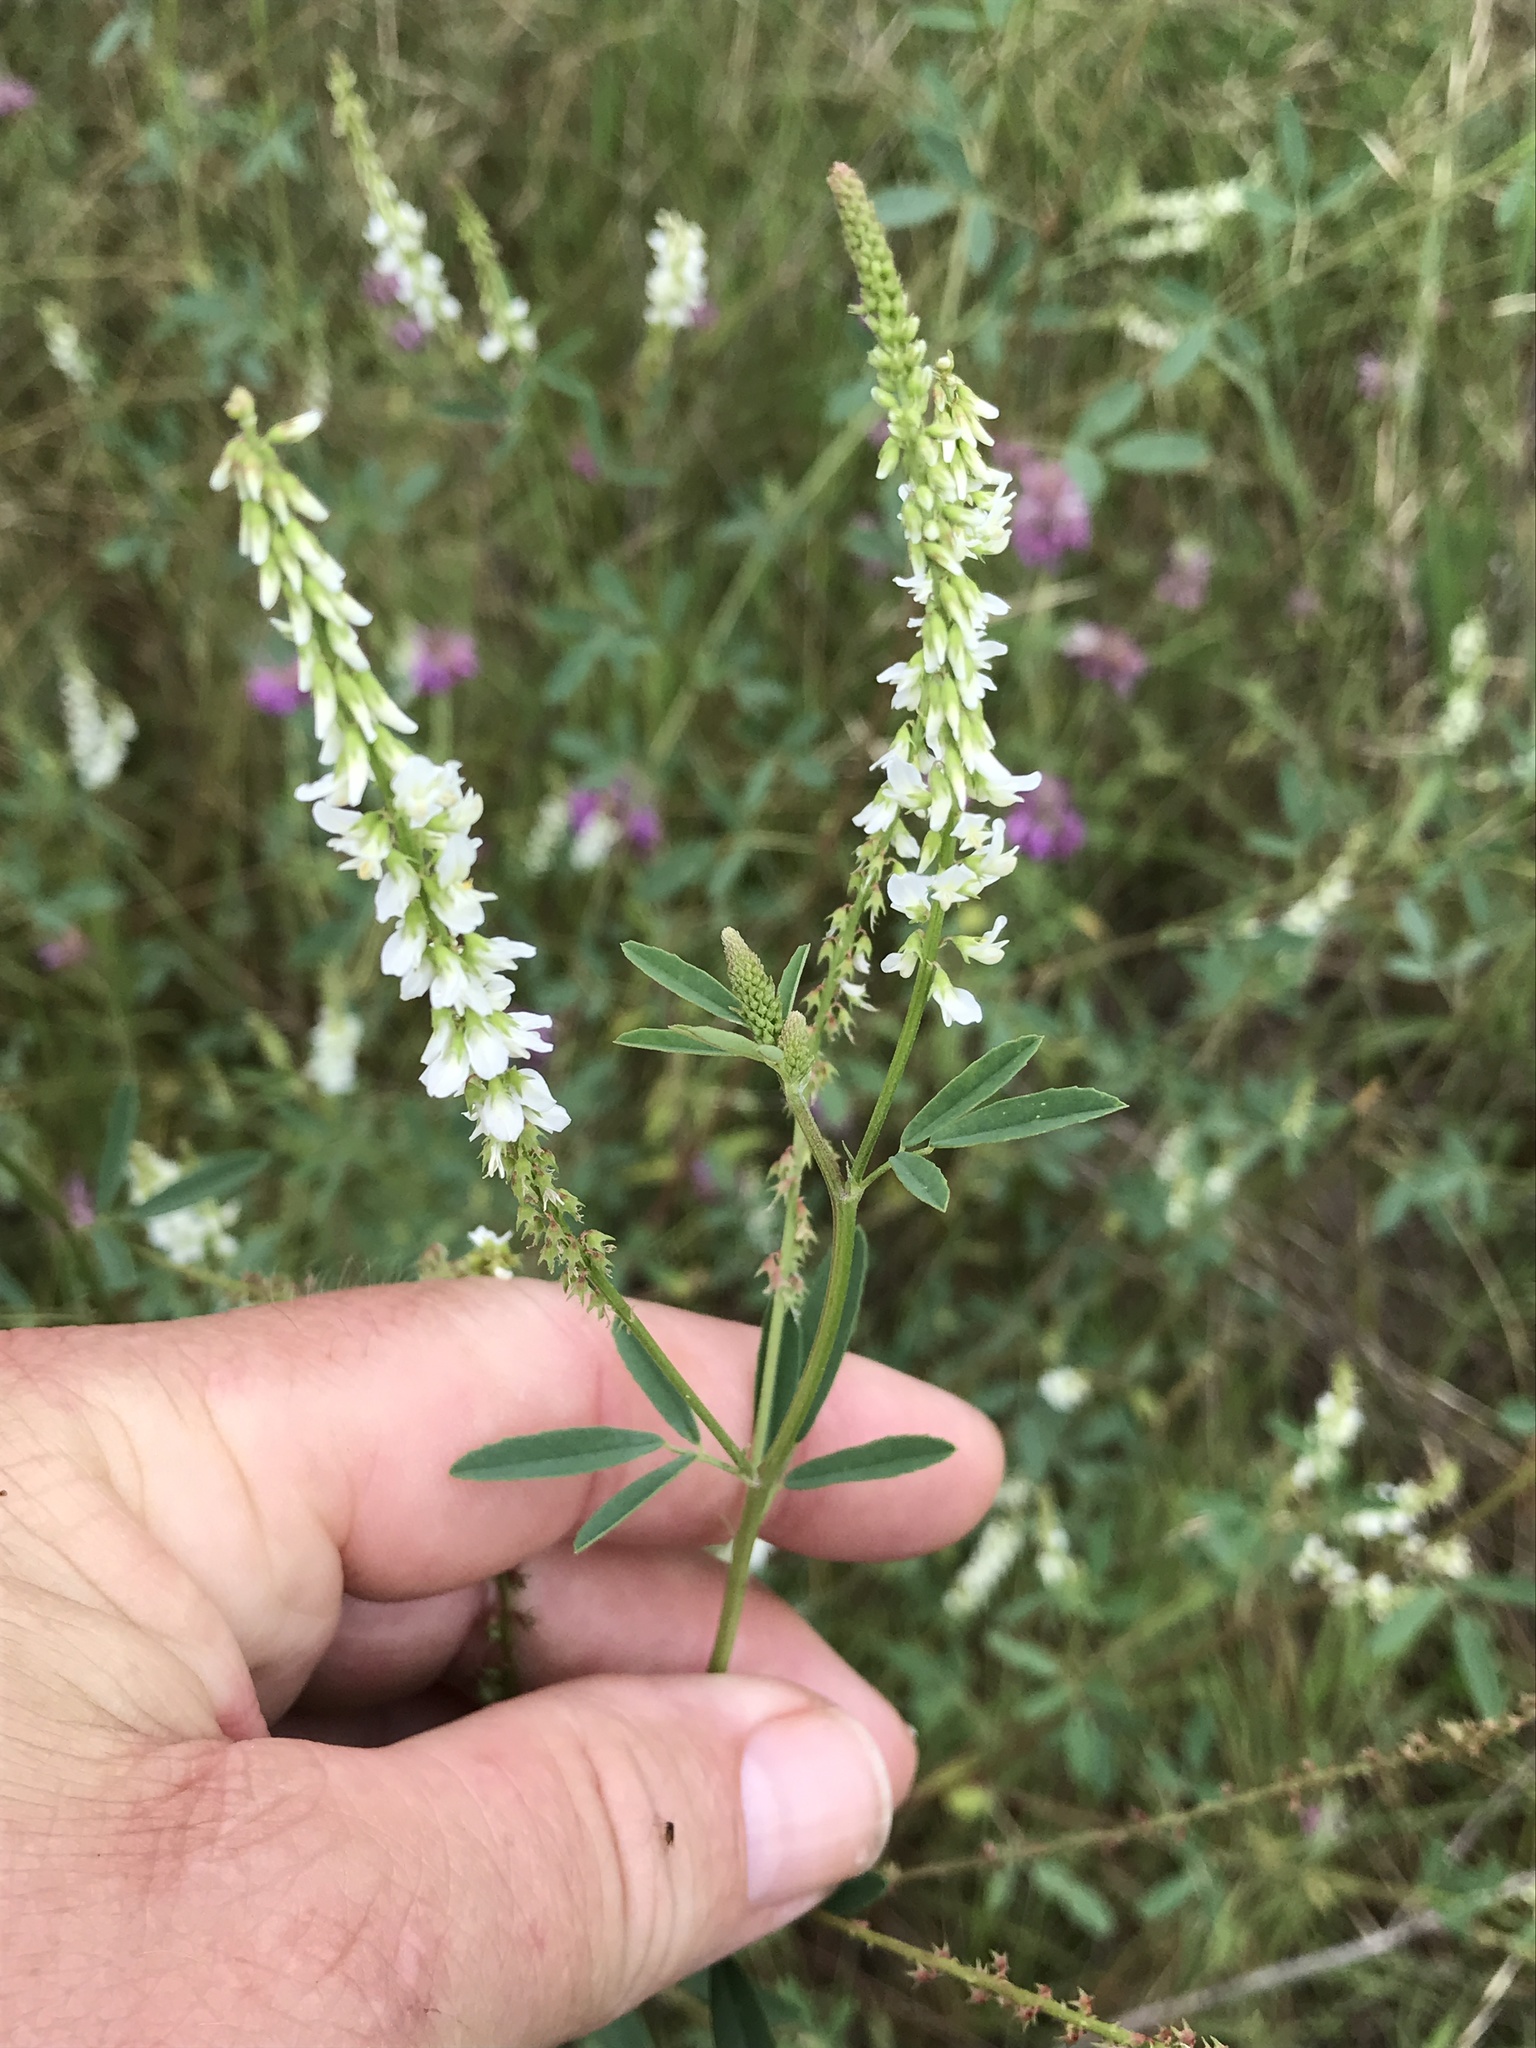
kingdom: Plantae
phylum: Tracheophyta
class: Magnoliopsida
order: Fabales
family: Fabaceae
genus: Melilotus
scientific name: Melilotus albus
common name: White melilot
